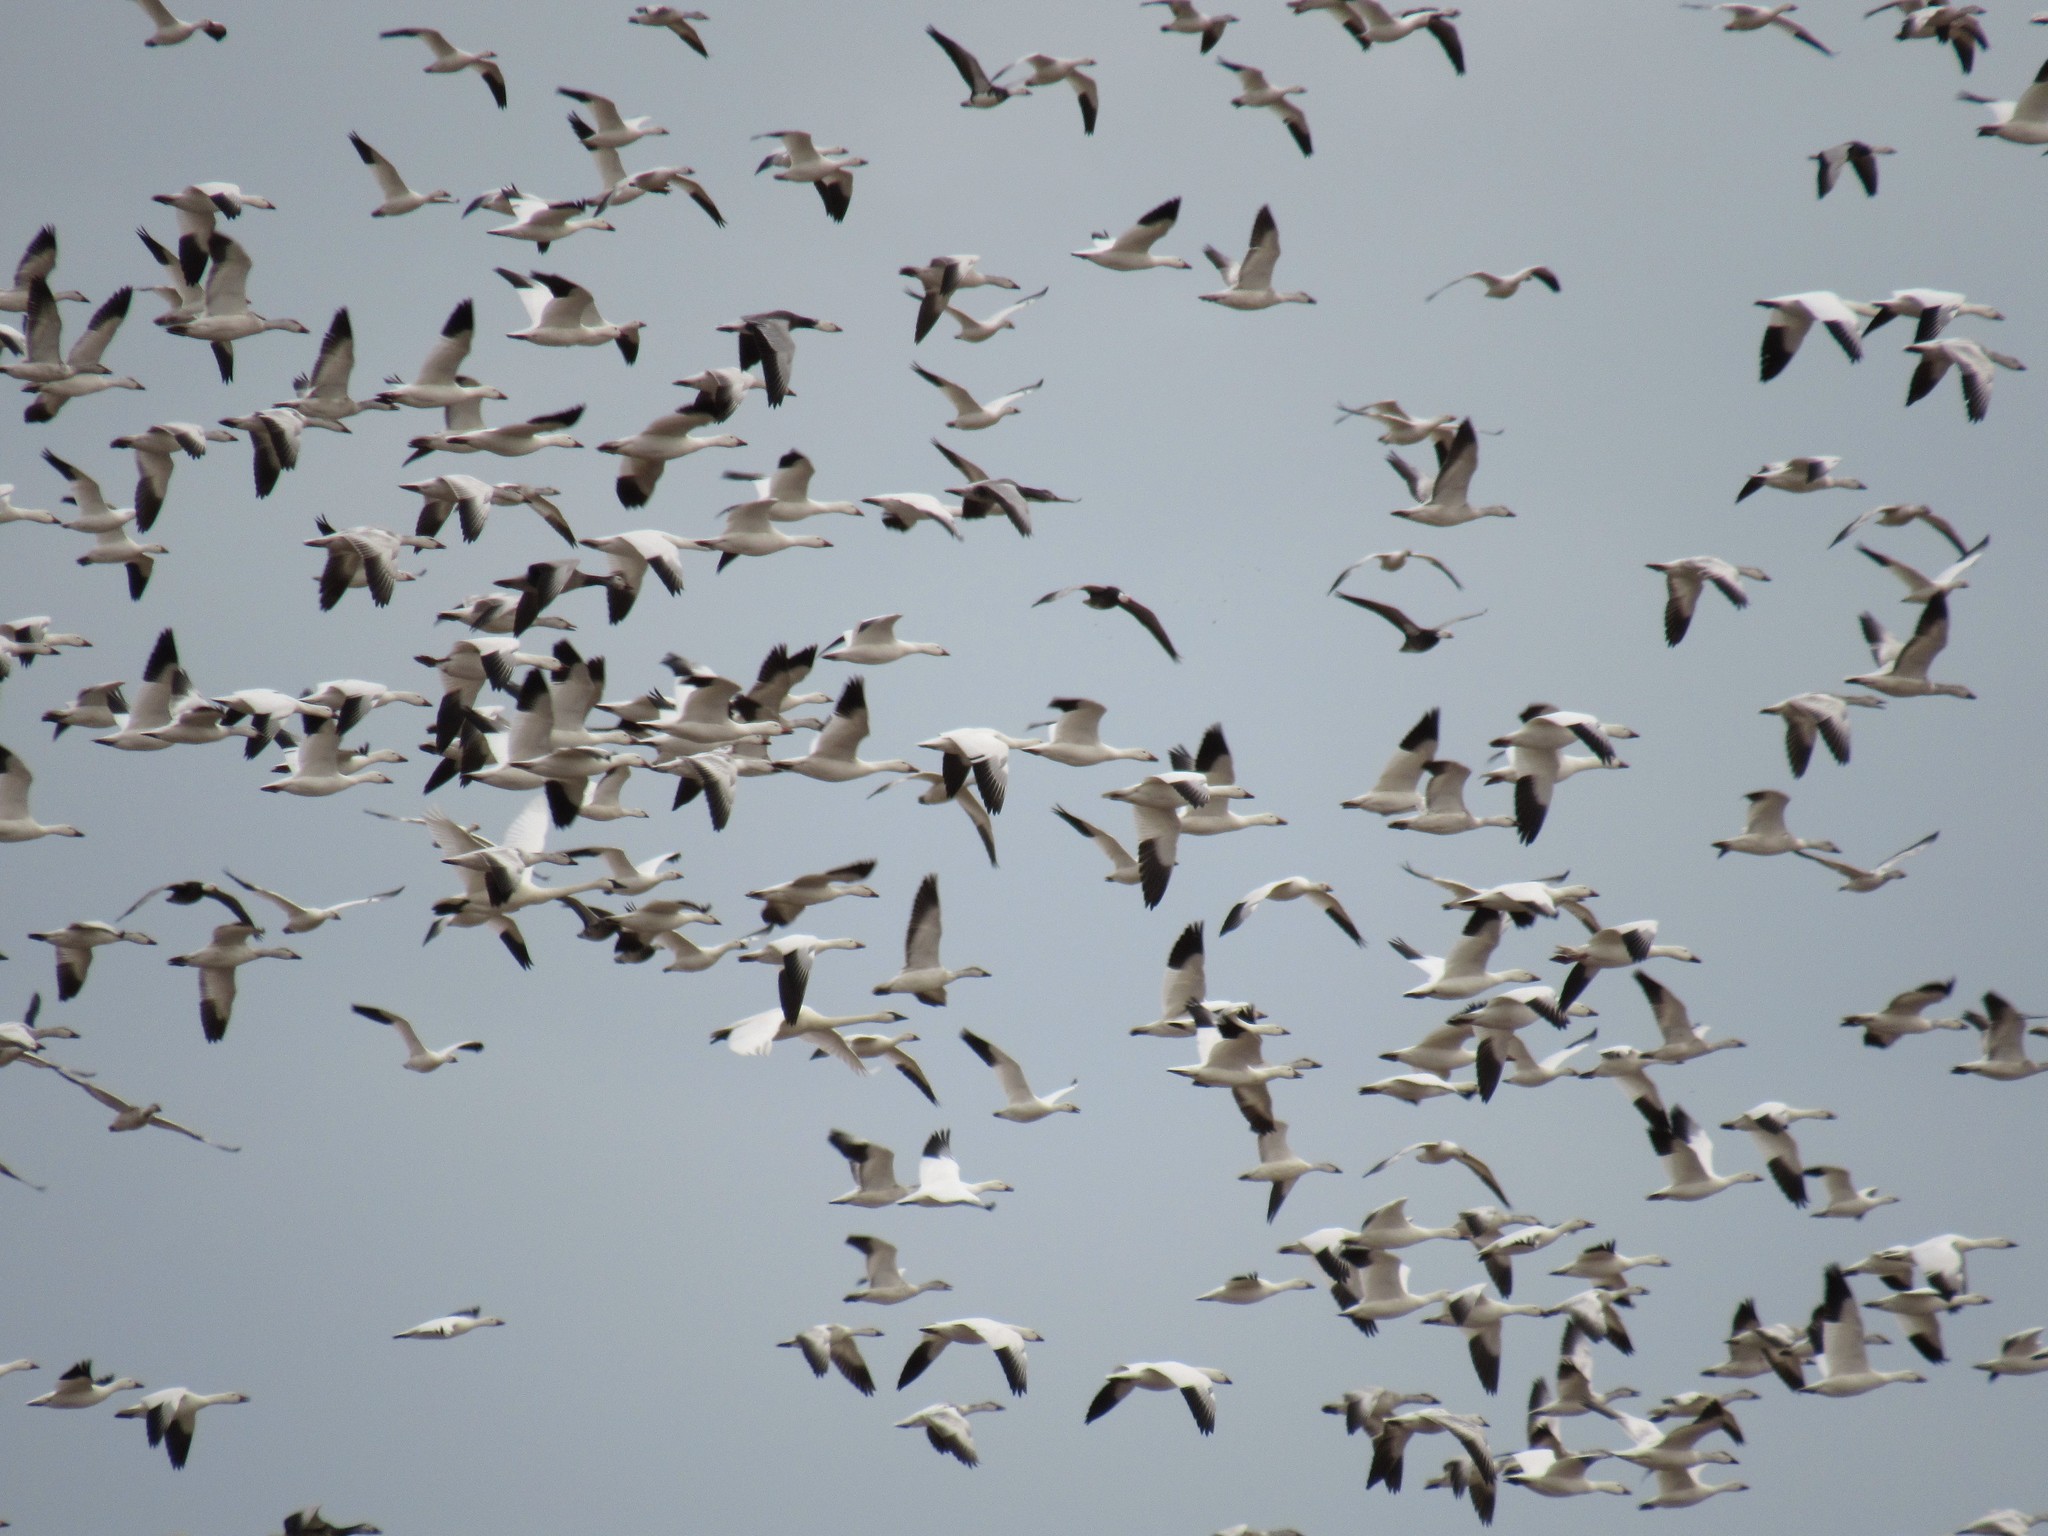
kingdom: Animalia
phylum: Chordata
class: Aves
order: Anseriformes
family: Anatidae
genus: Anser
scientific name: Anser caerulescens
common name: Snow goose
